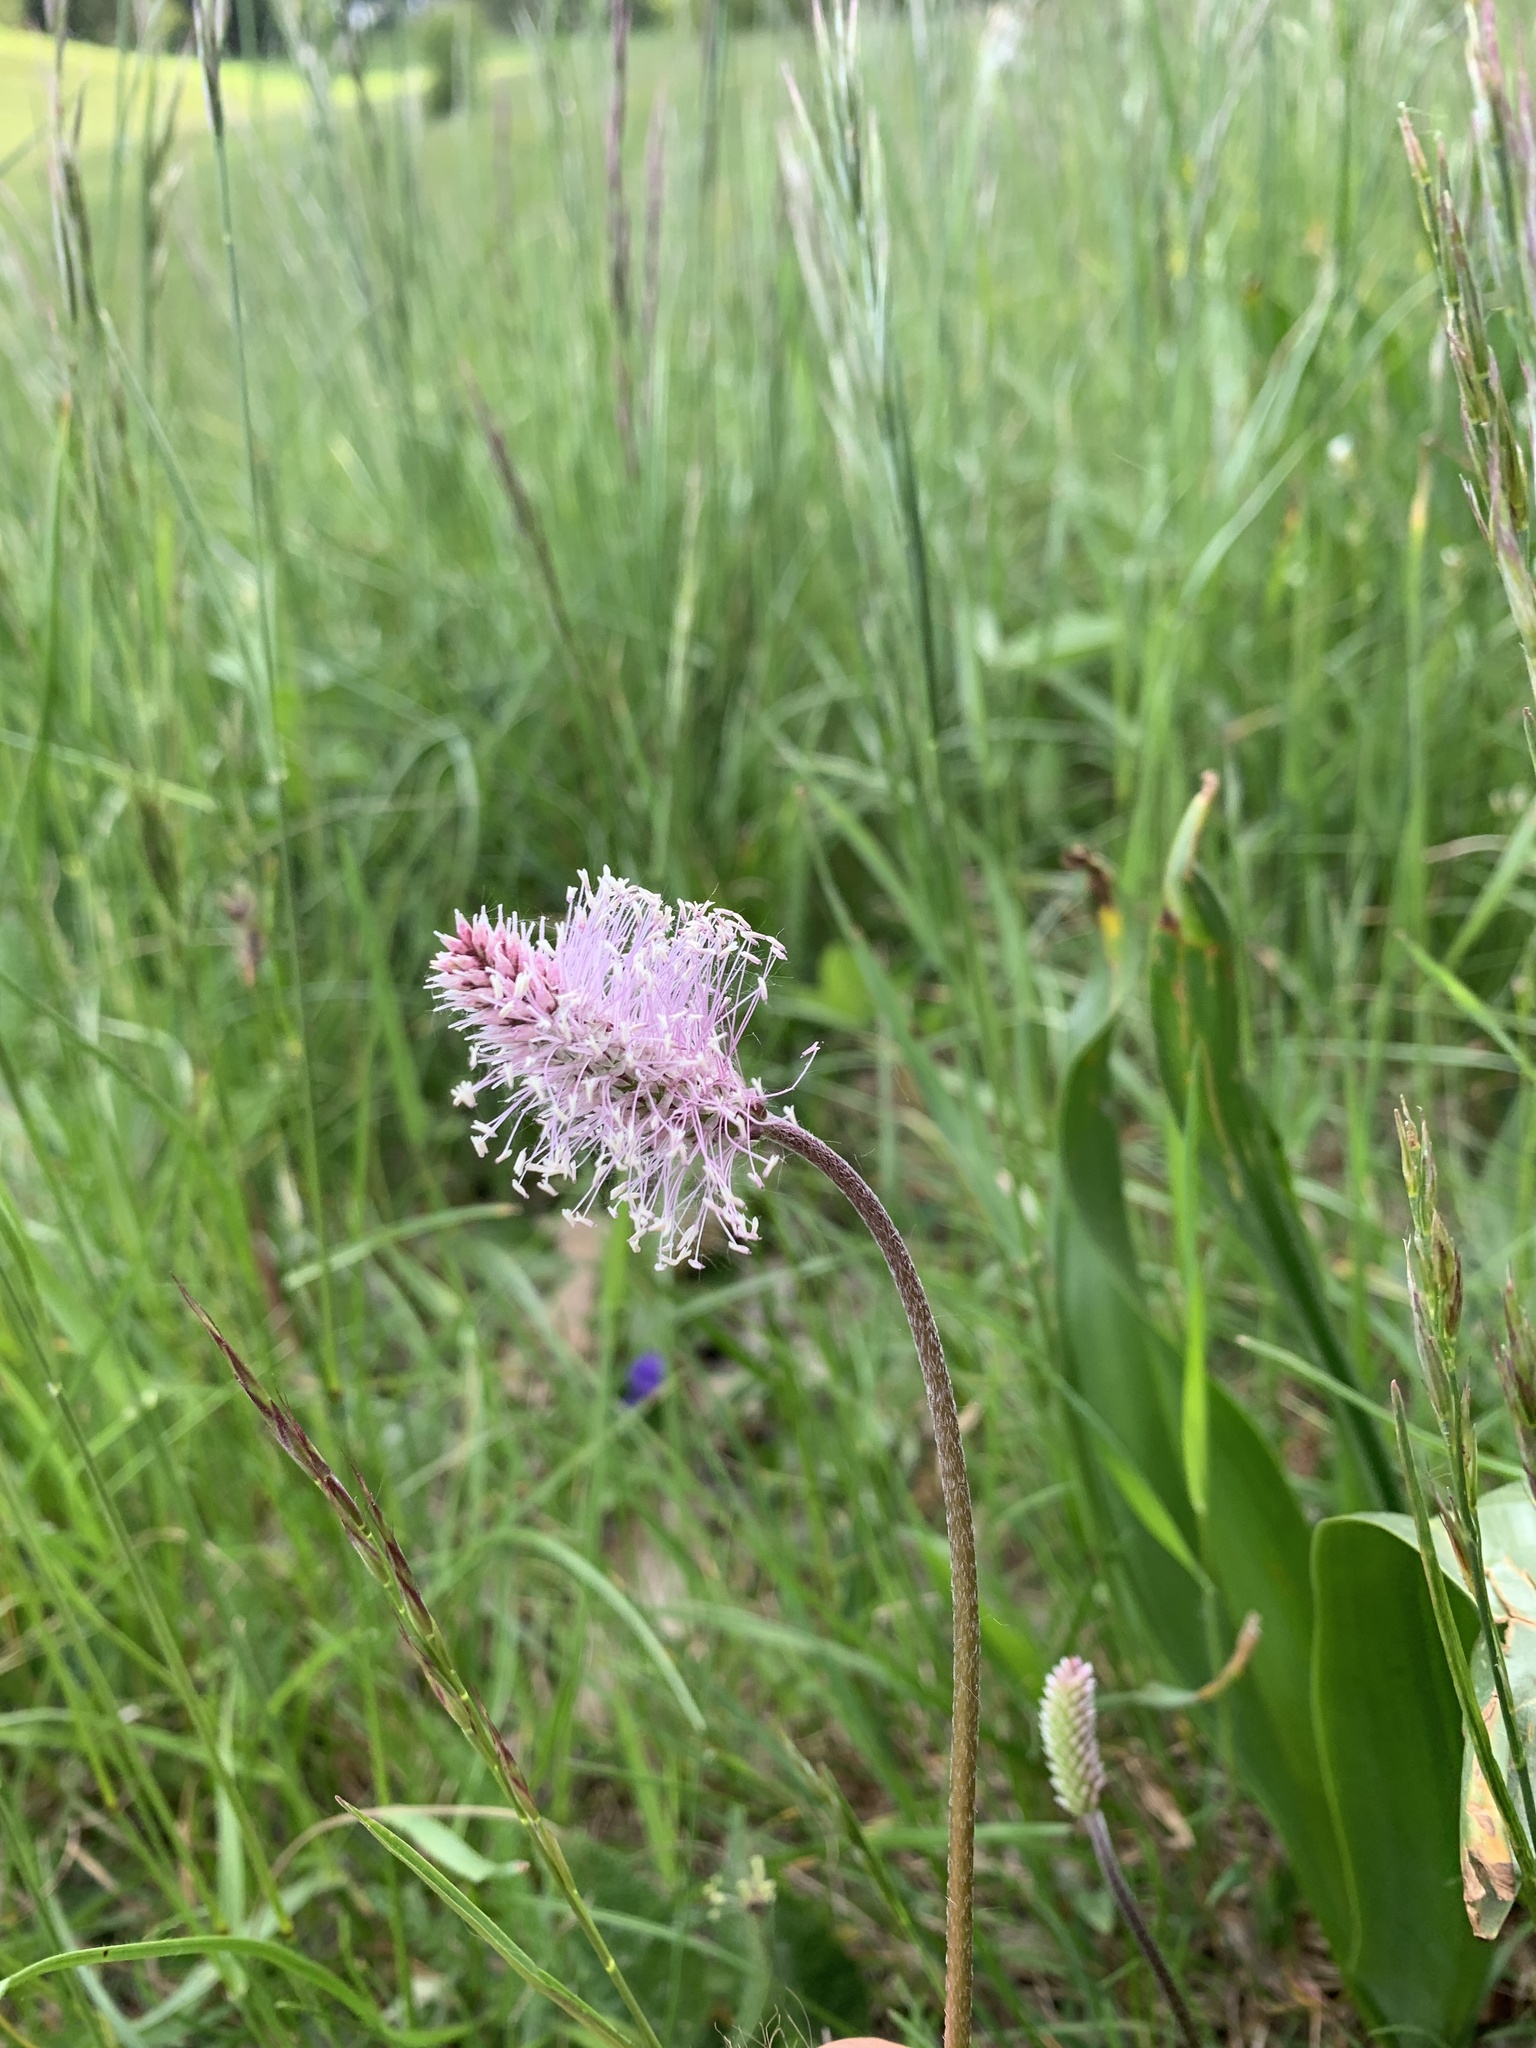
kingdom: Plantae
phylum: Tracheophyta
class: Magnoliopsida
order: Lamiales
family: Plantaginaceae
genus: Plantago
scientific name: Plantago media
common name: Hoary plantain
